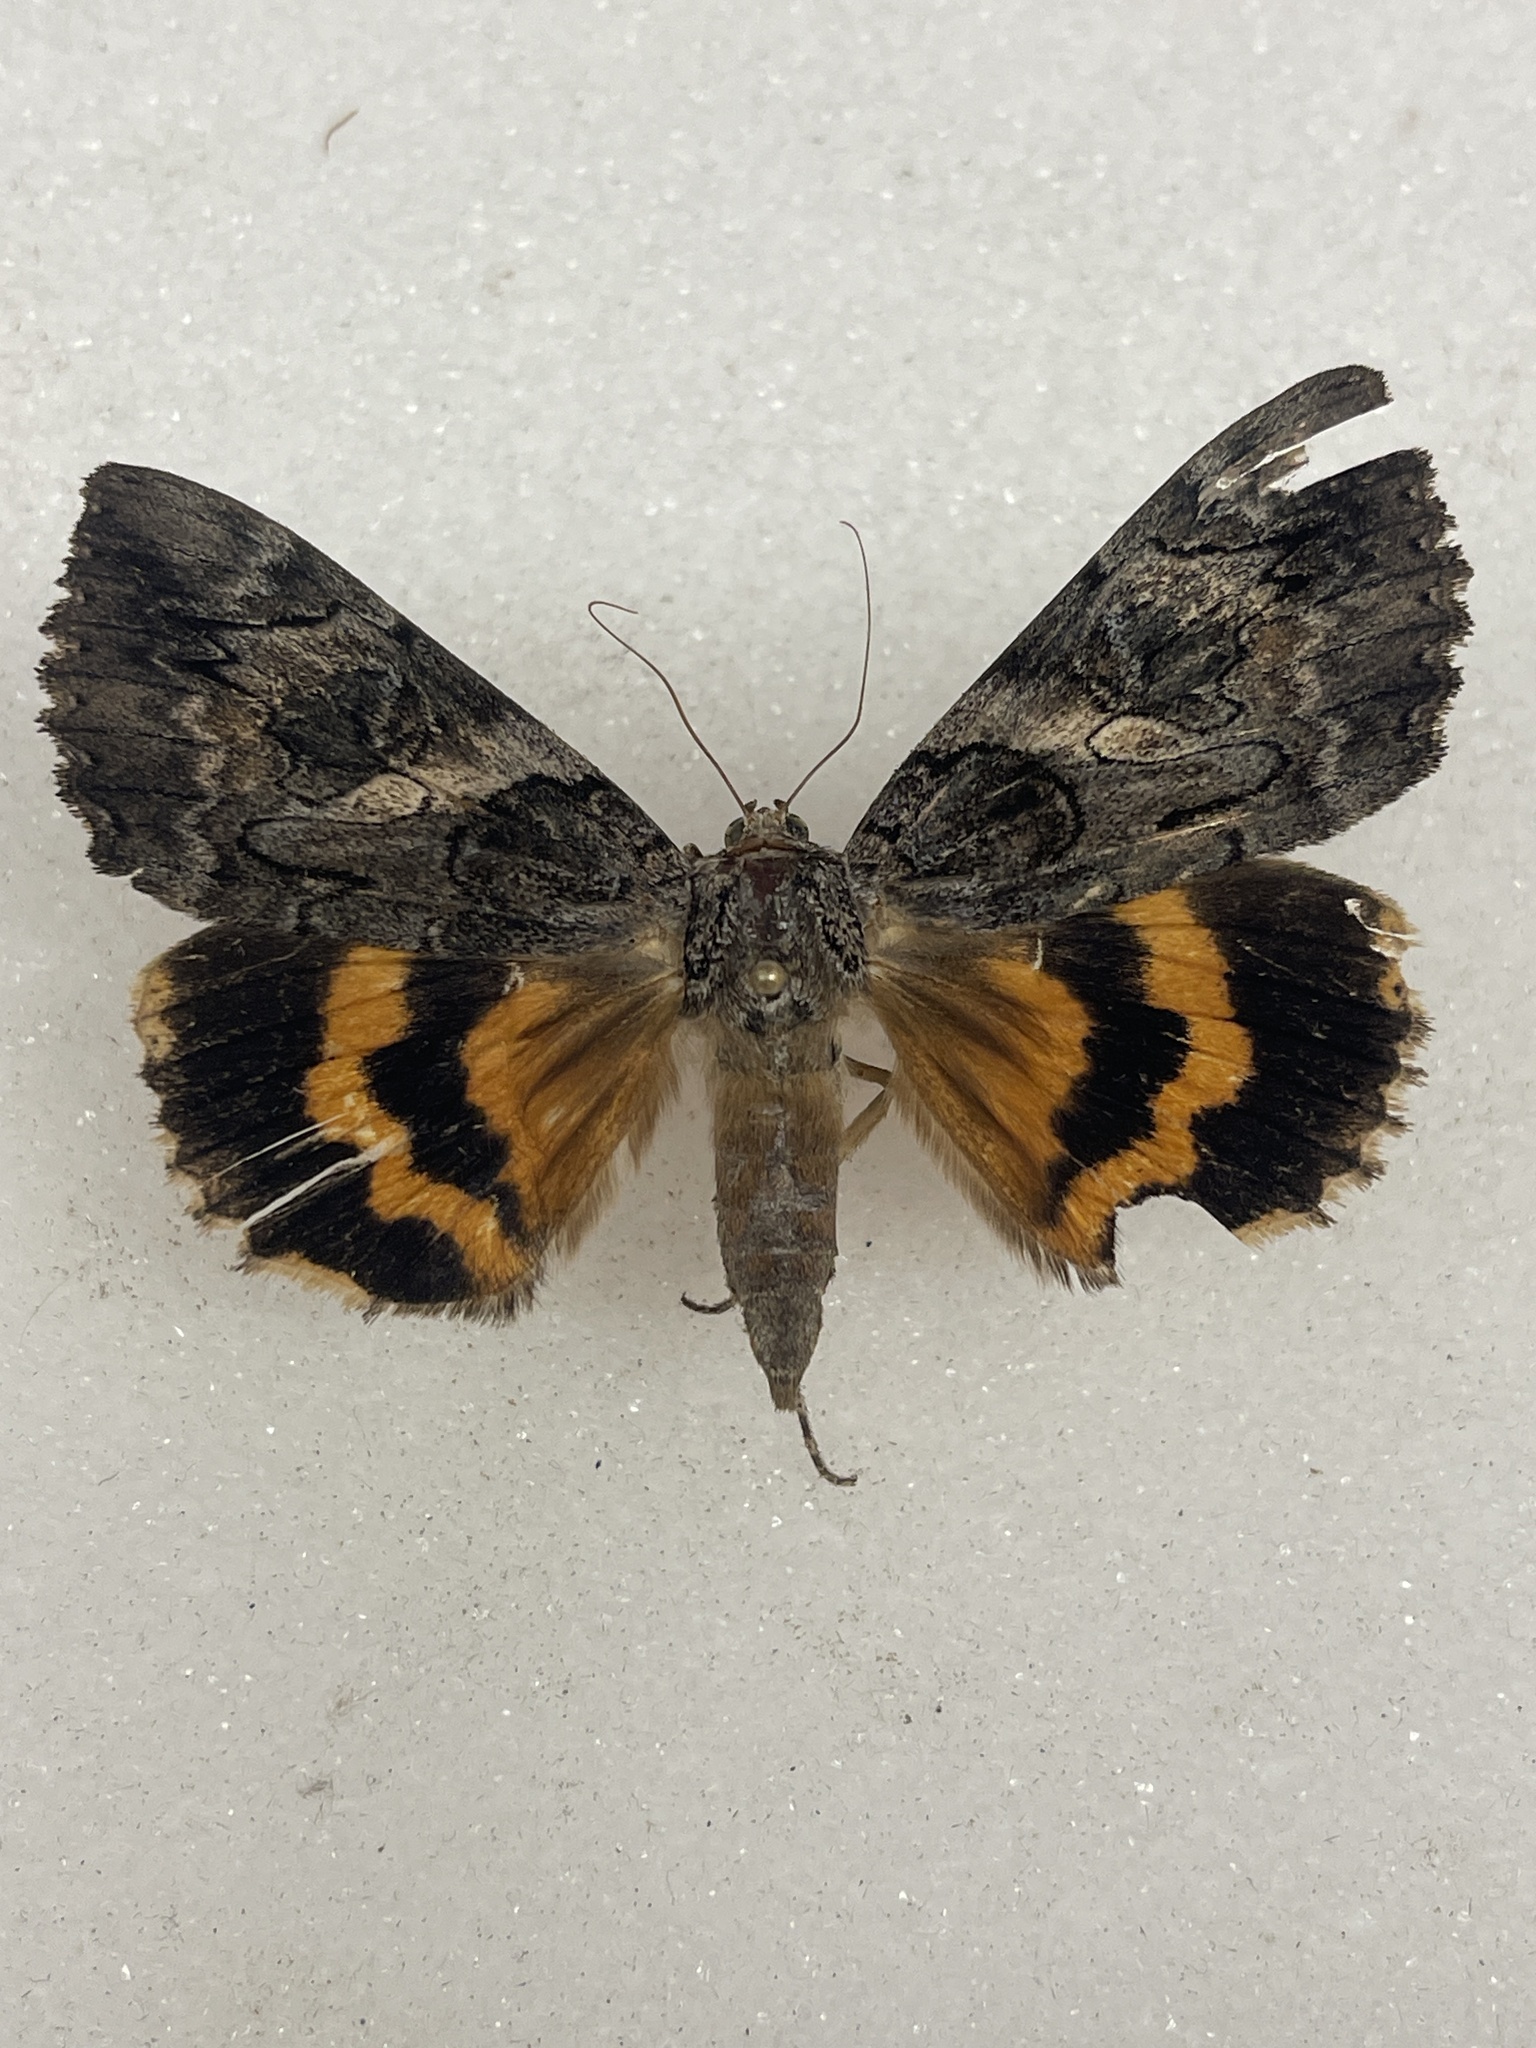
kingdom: Animalia
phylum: Arthropoda
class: Insecta
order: Lepidoptera
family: Erebidae
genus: Catocala
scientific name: Catocala piatrix
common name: The penitent underwing
